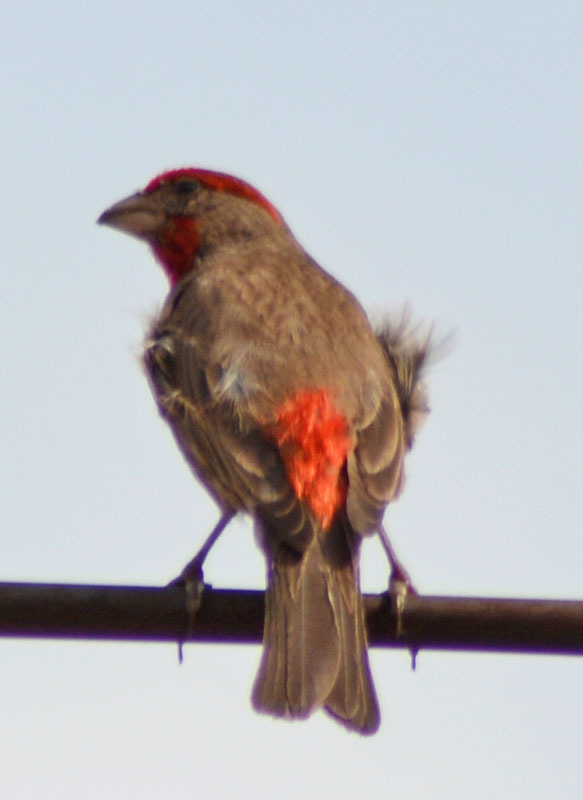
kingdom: Animalia
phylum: Chordata
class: Aves
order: Passeriformes
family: Fringillidae
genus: Haemorhous
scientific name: Haemorhous mexicanus
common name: House finch
